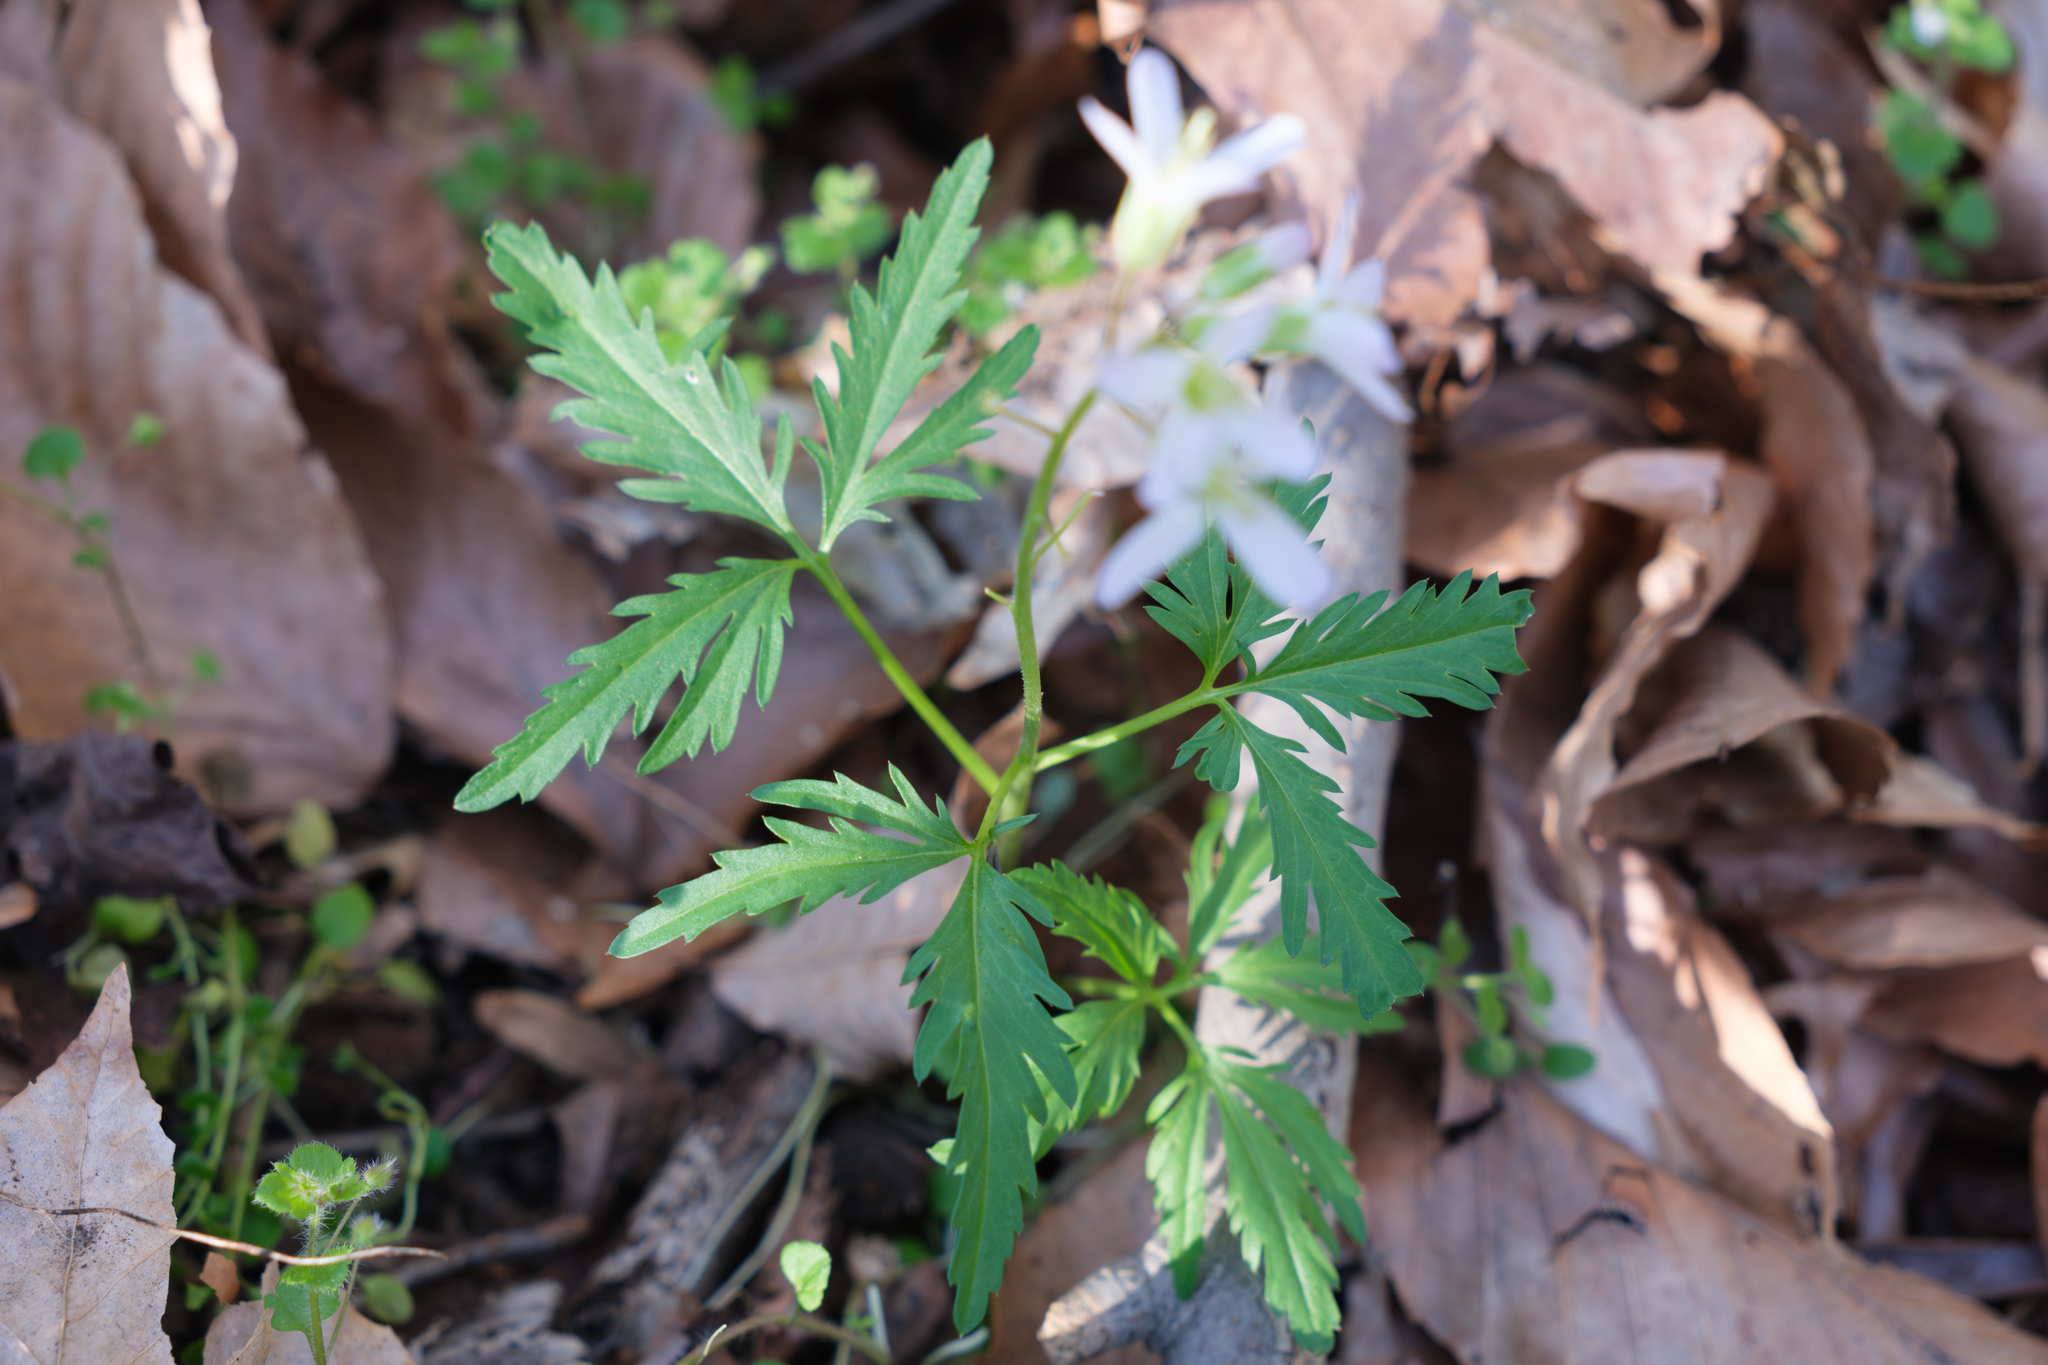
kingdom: Plantae
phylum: Tracheophyta
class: Magnoliopsida
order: Brassicales
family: Brassicaceae
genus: Cardamine
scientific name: Cardamine concatenata
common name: Cut-leaf toothcup
